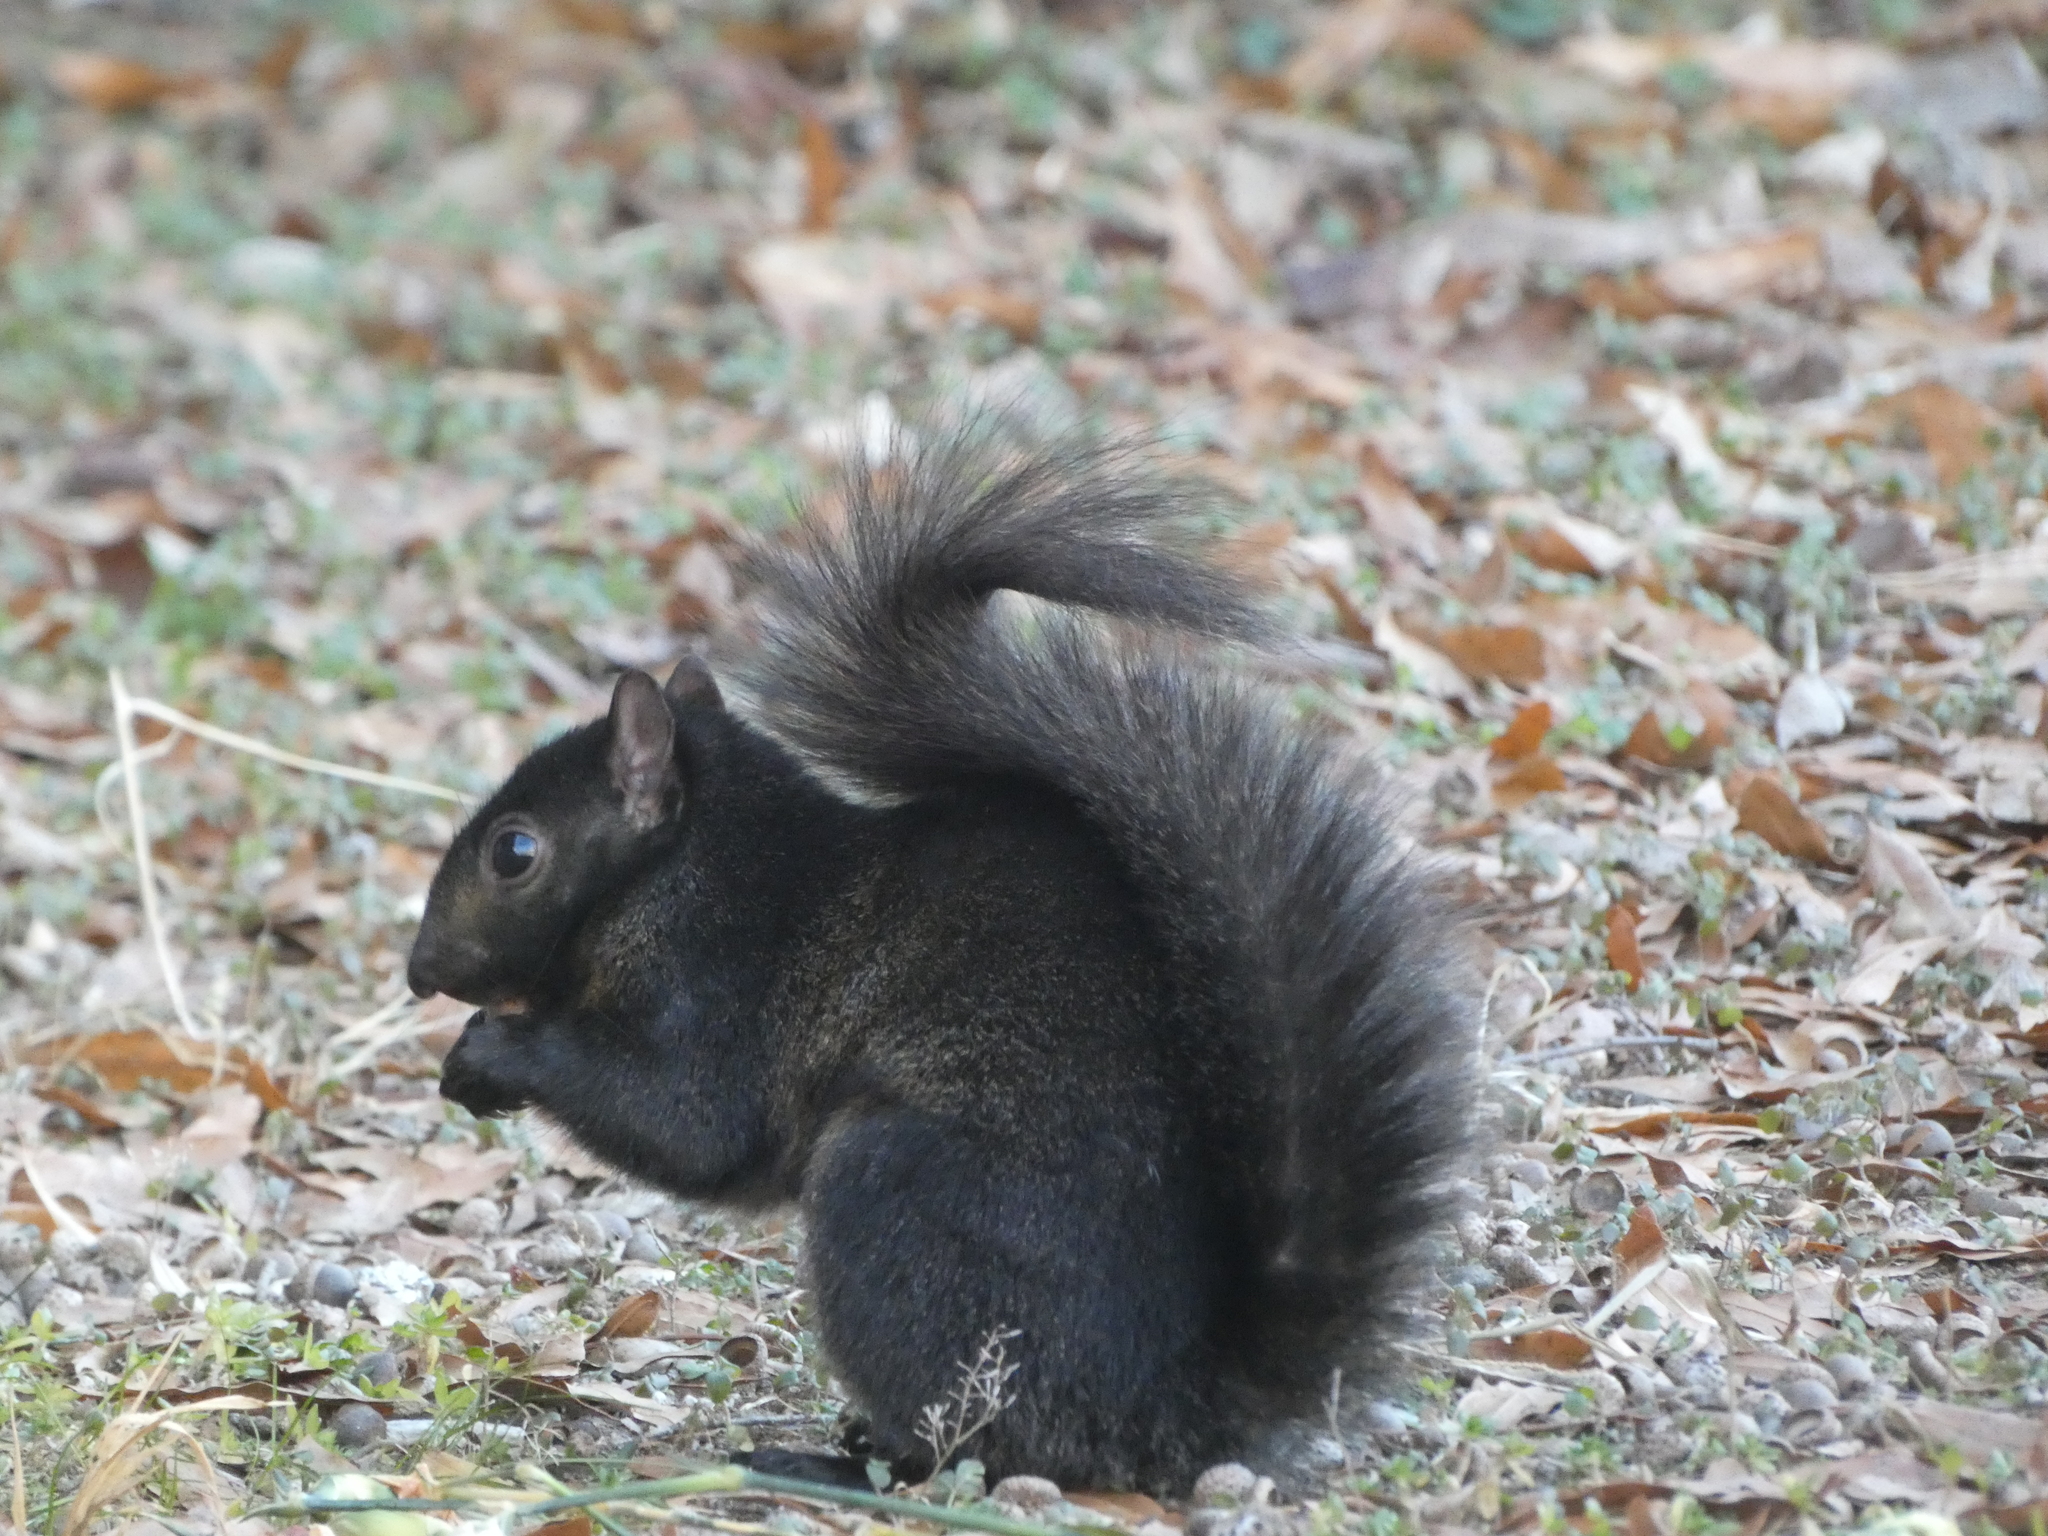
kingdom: Animalia
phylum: Chordata
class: Mammalia
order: Rodentia
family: Sciuridae
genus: Sciurus
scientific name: Sciurus carolinensis
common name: Eastern gray squirrel
